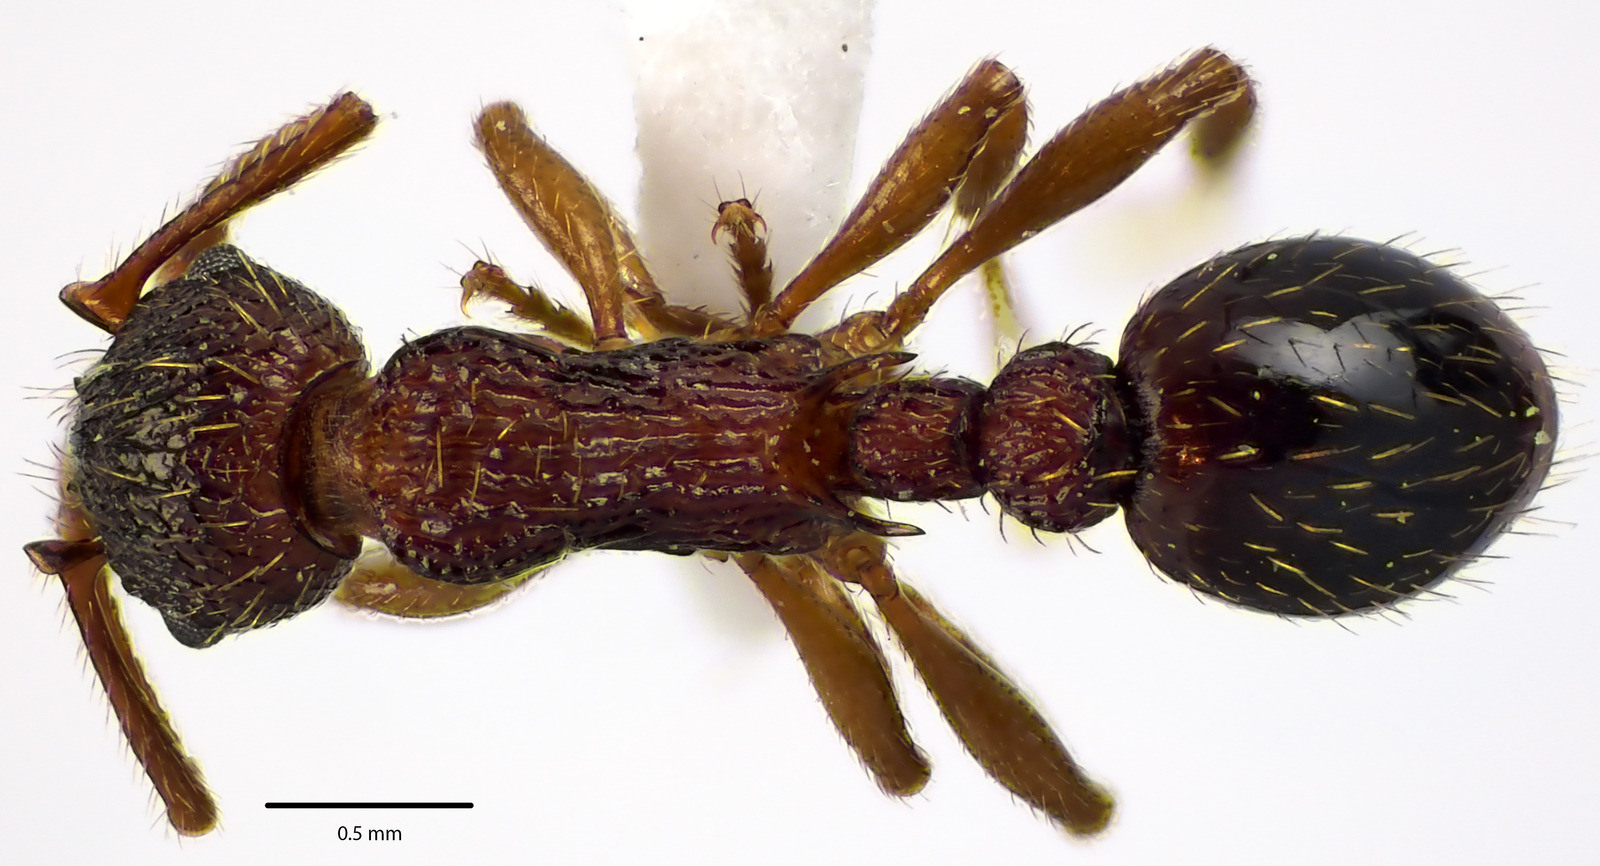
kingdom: Animalia
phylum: Arthropoda
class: Insecta
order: Hymenoptera
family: Formicidae
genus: Myrmica
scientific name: Myrmica spatulata
